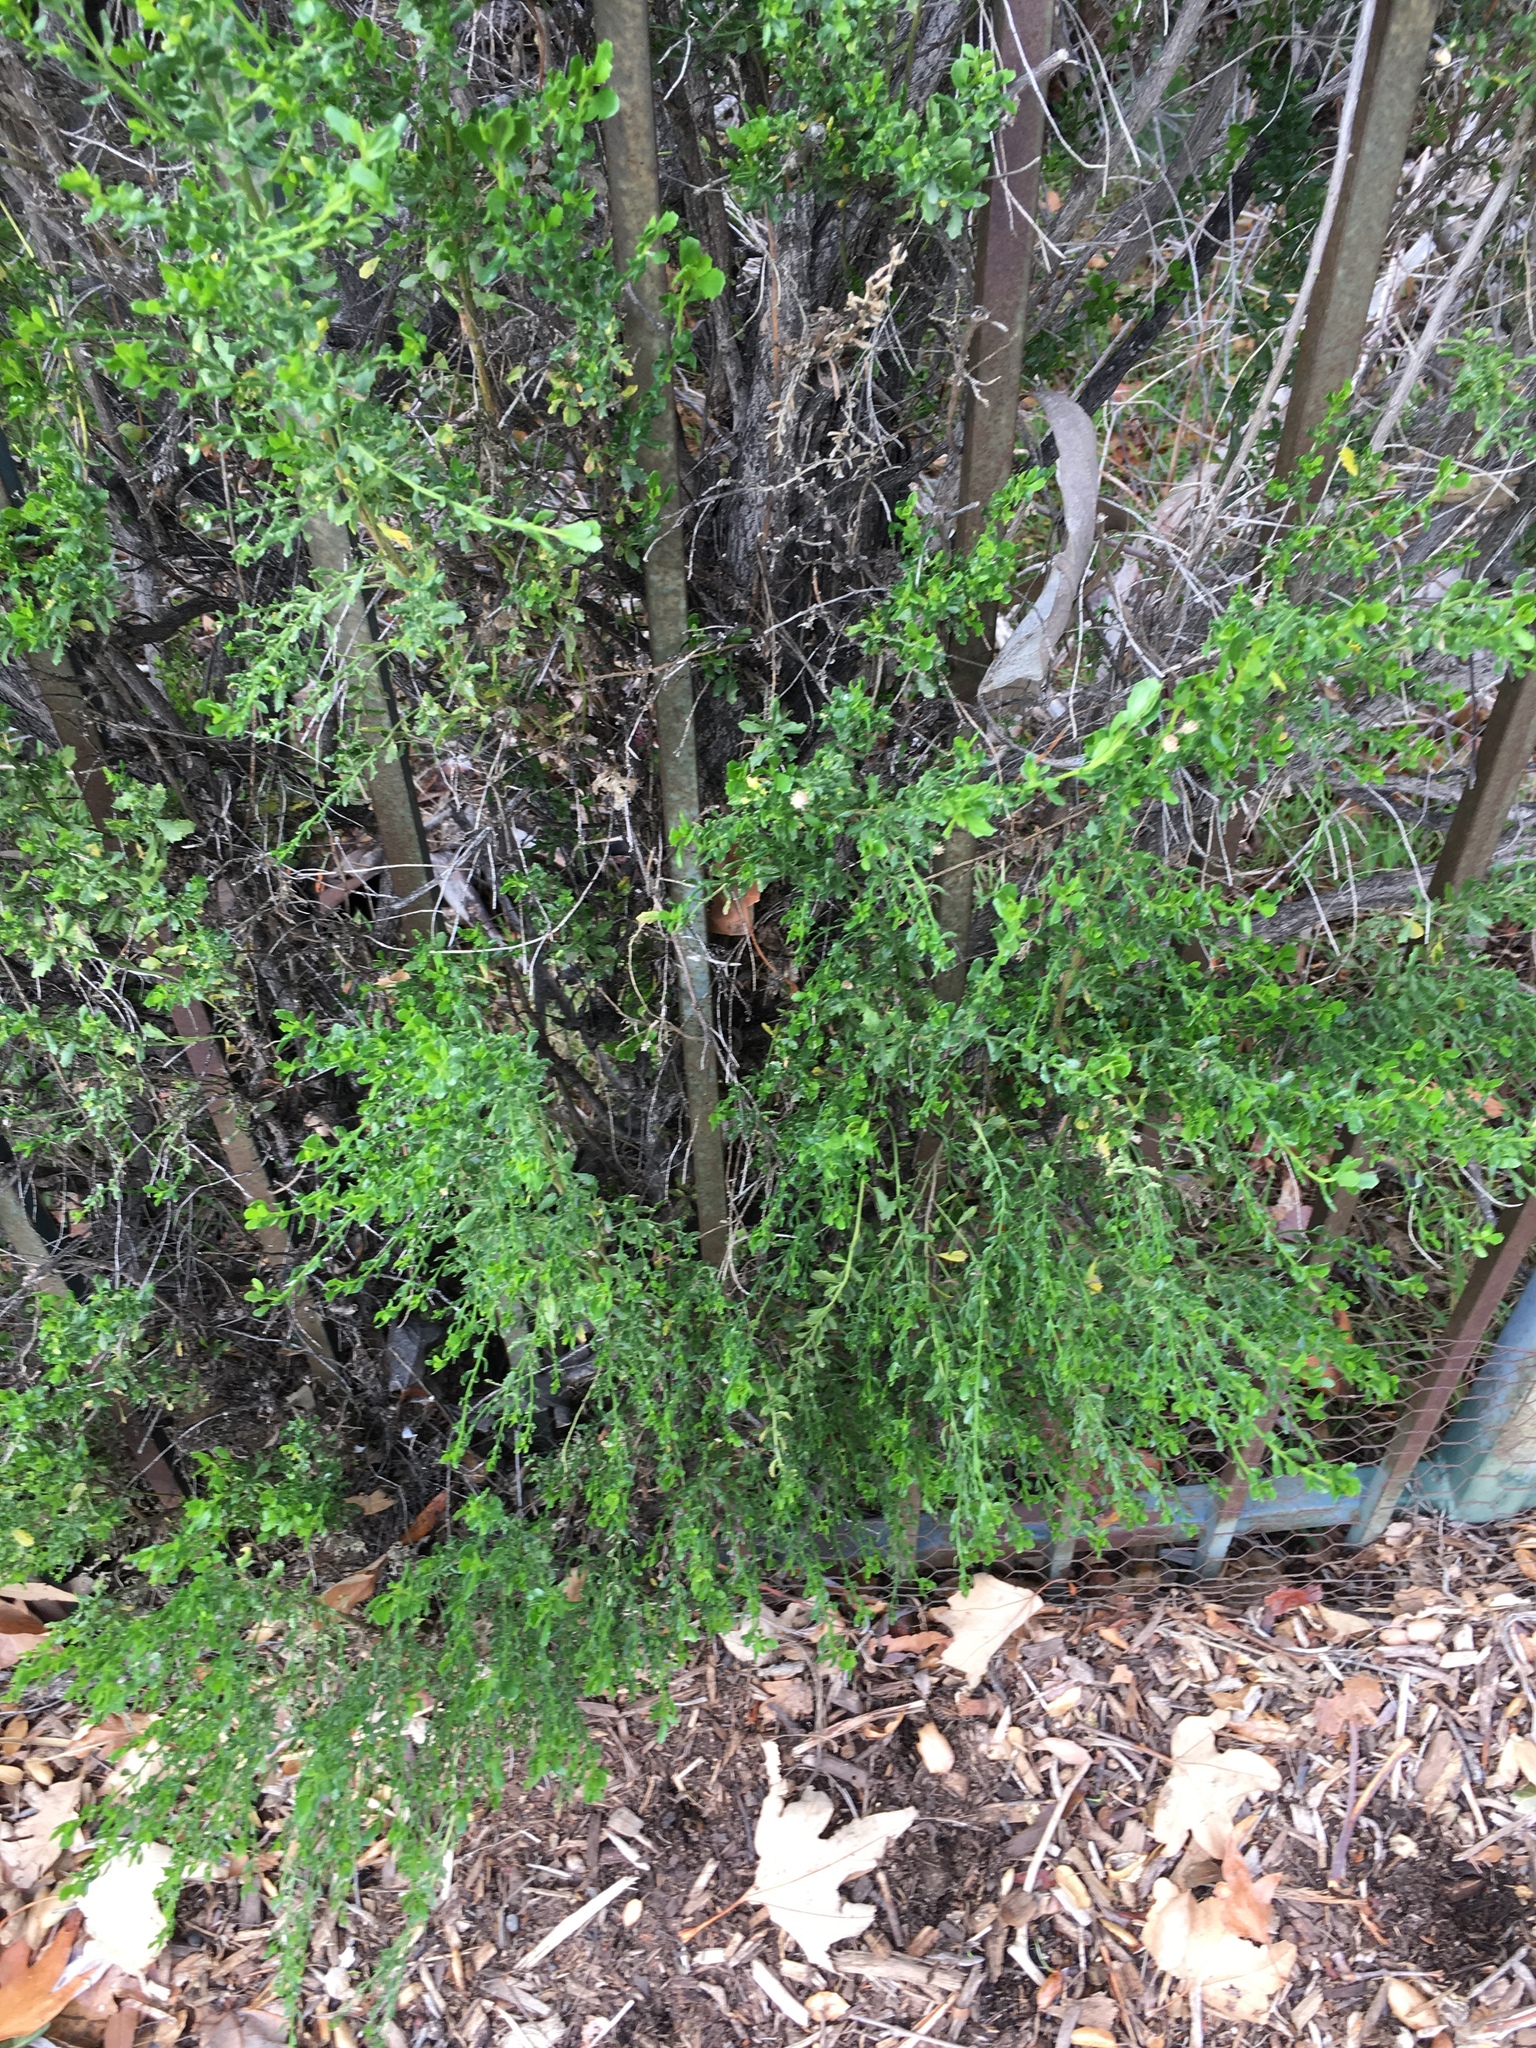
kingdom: Plantae
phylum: Tracheophyta
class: Magnoliopsida
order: Asterales
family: Asteraceae
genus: Baccharis
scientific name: Baccharis pilularis
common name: Coyotebrush
